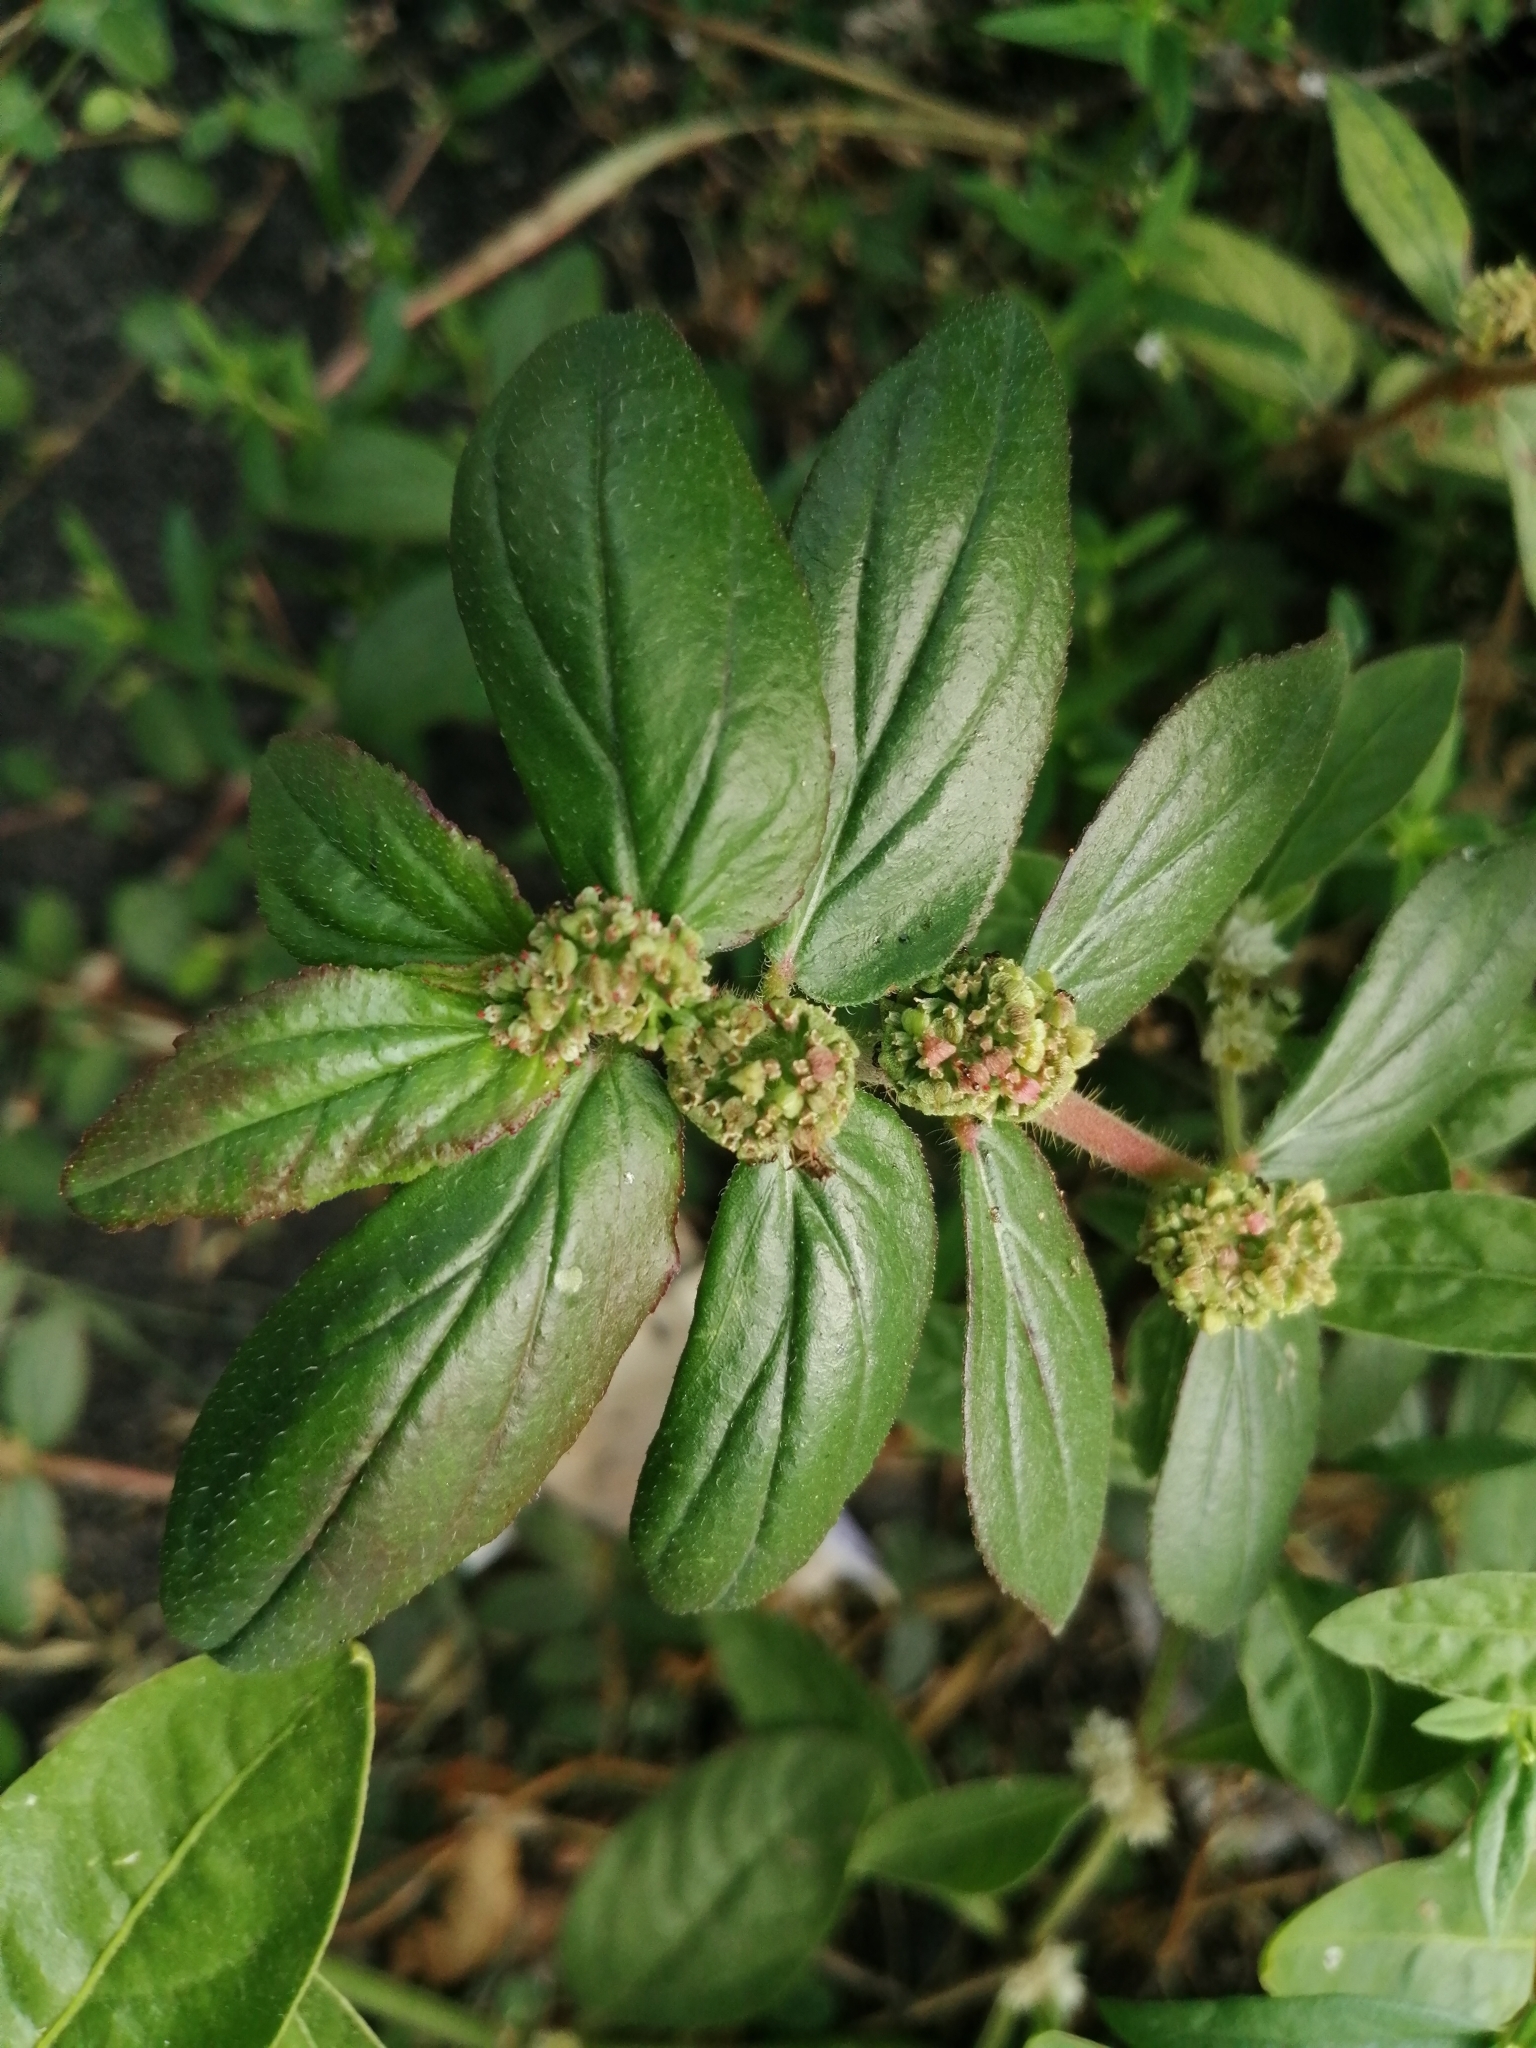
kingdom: Plantae
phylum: Tracheophyta
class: Magnoliopsida
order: Malpighiales
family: Euphorbiaceae
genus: Euphorbia
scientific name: Euphorbia hirta
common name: Pillpod sandmat
